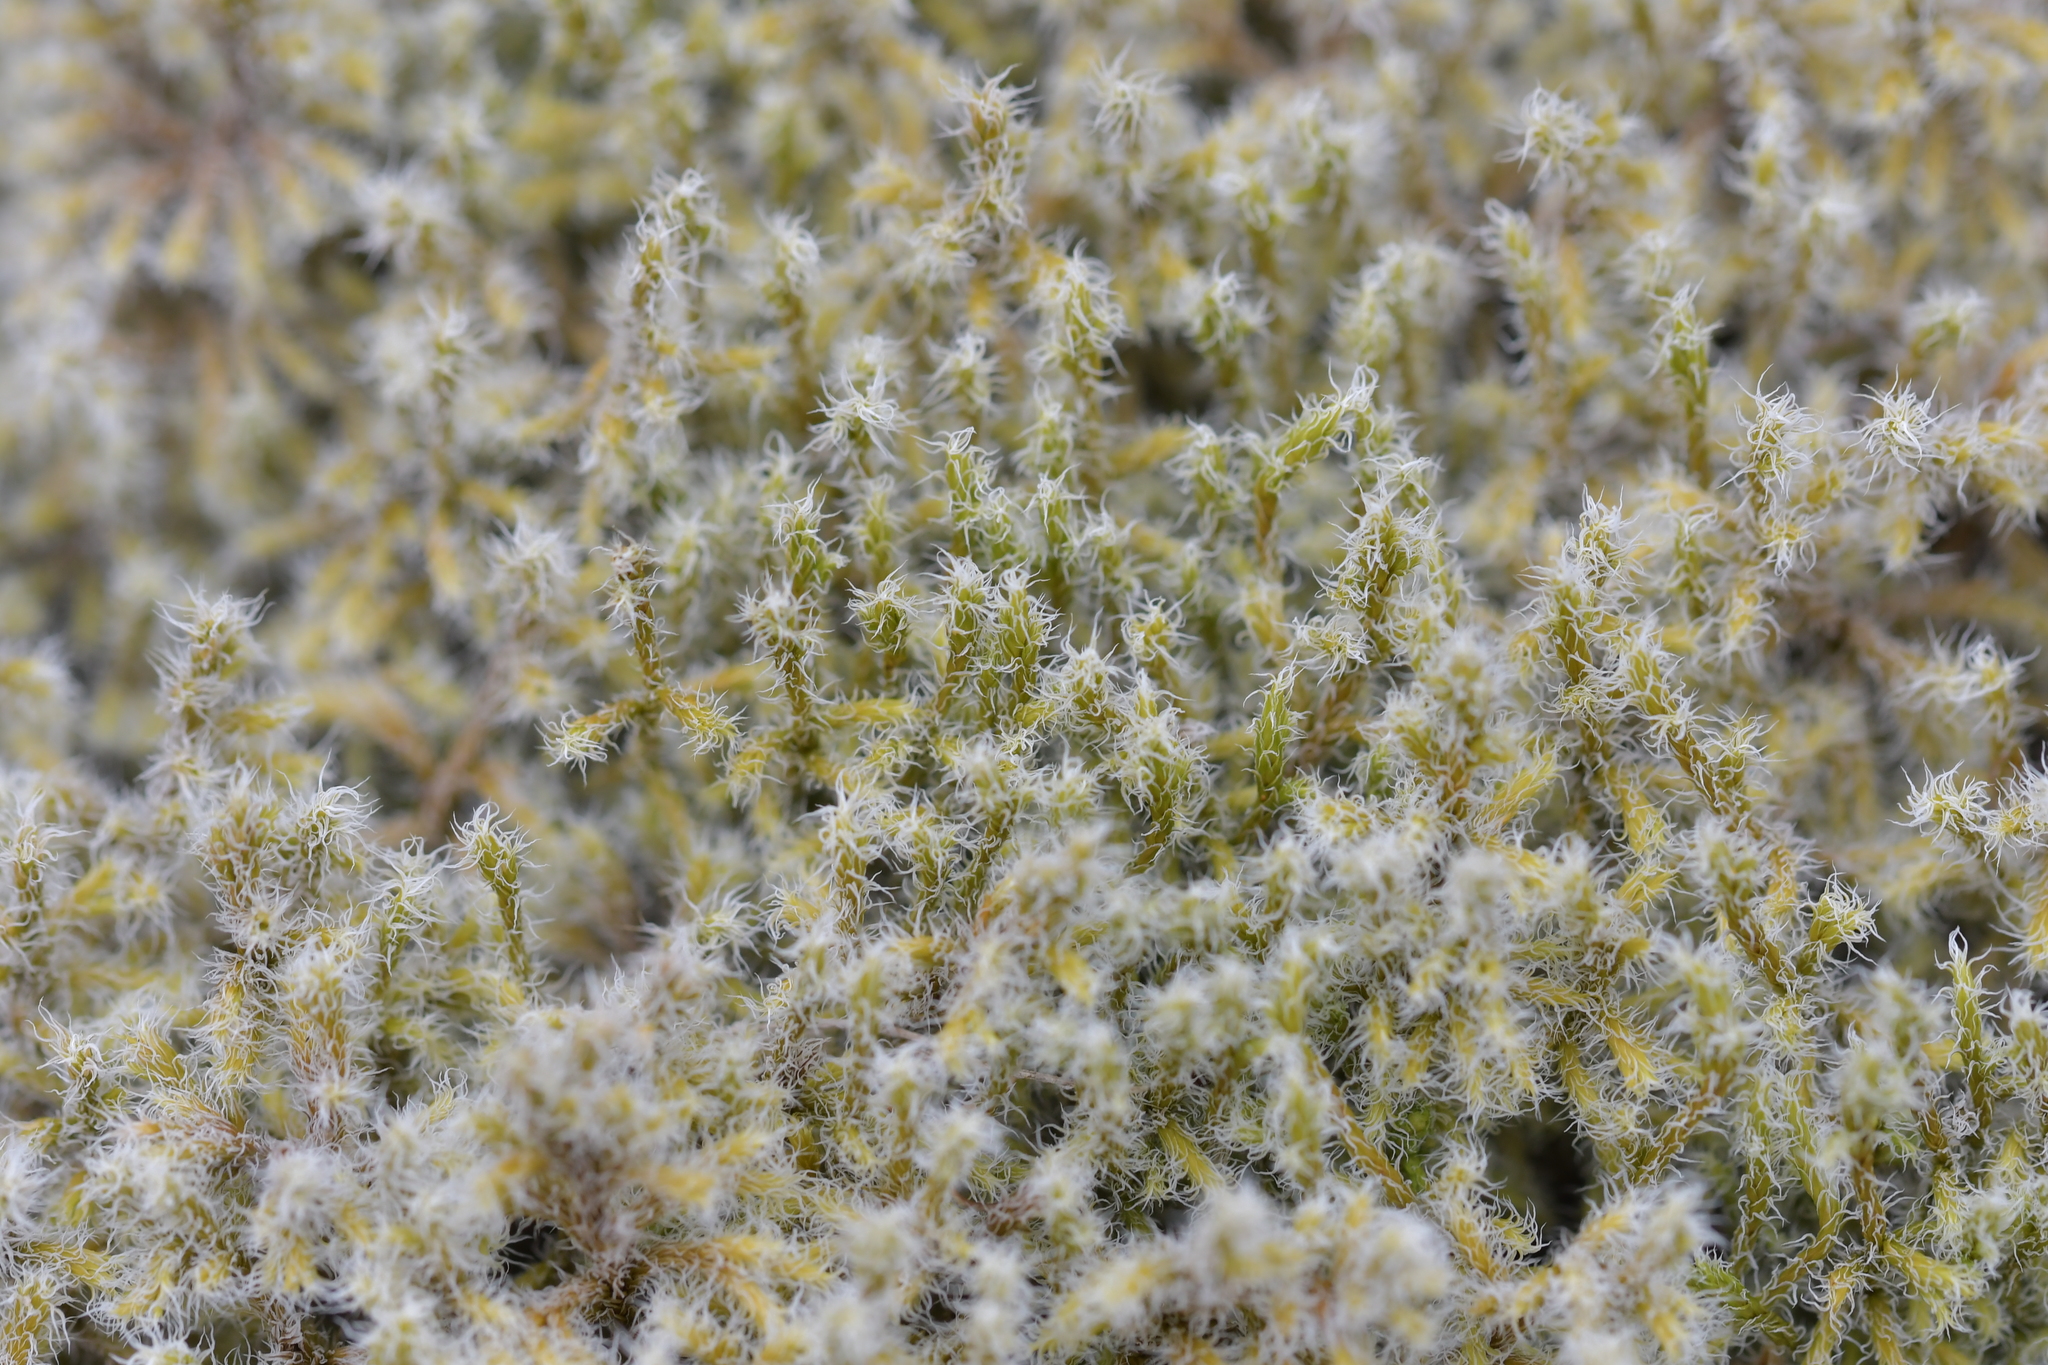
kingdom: Plantae
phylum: Bryophyta
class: Bryopsida
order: Grimmiales
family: Grimmiaceae
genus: Racomitrium
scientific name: Racomitrium lanuginosum
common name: Hoary rock moss
